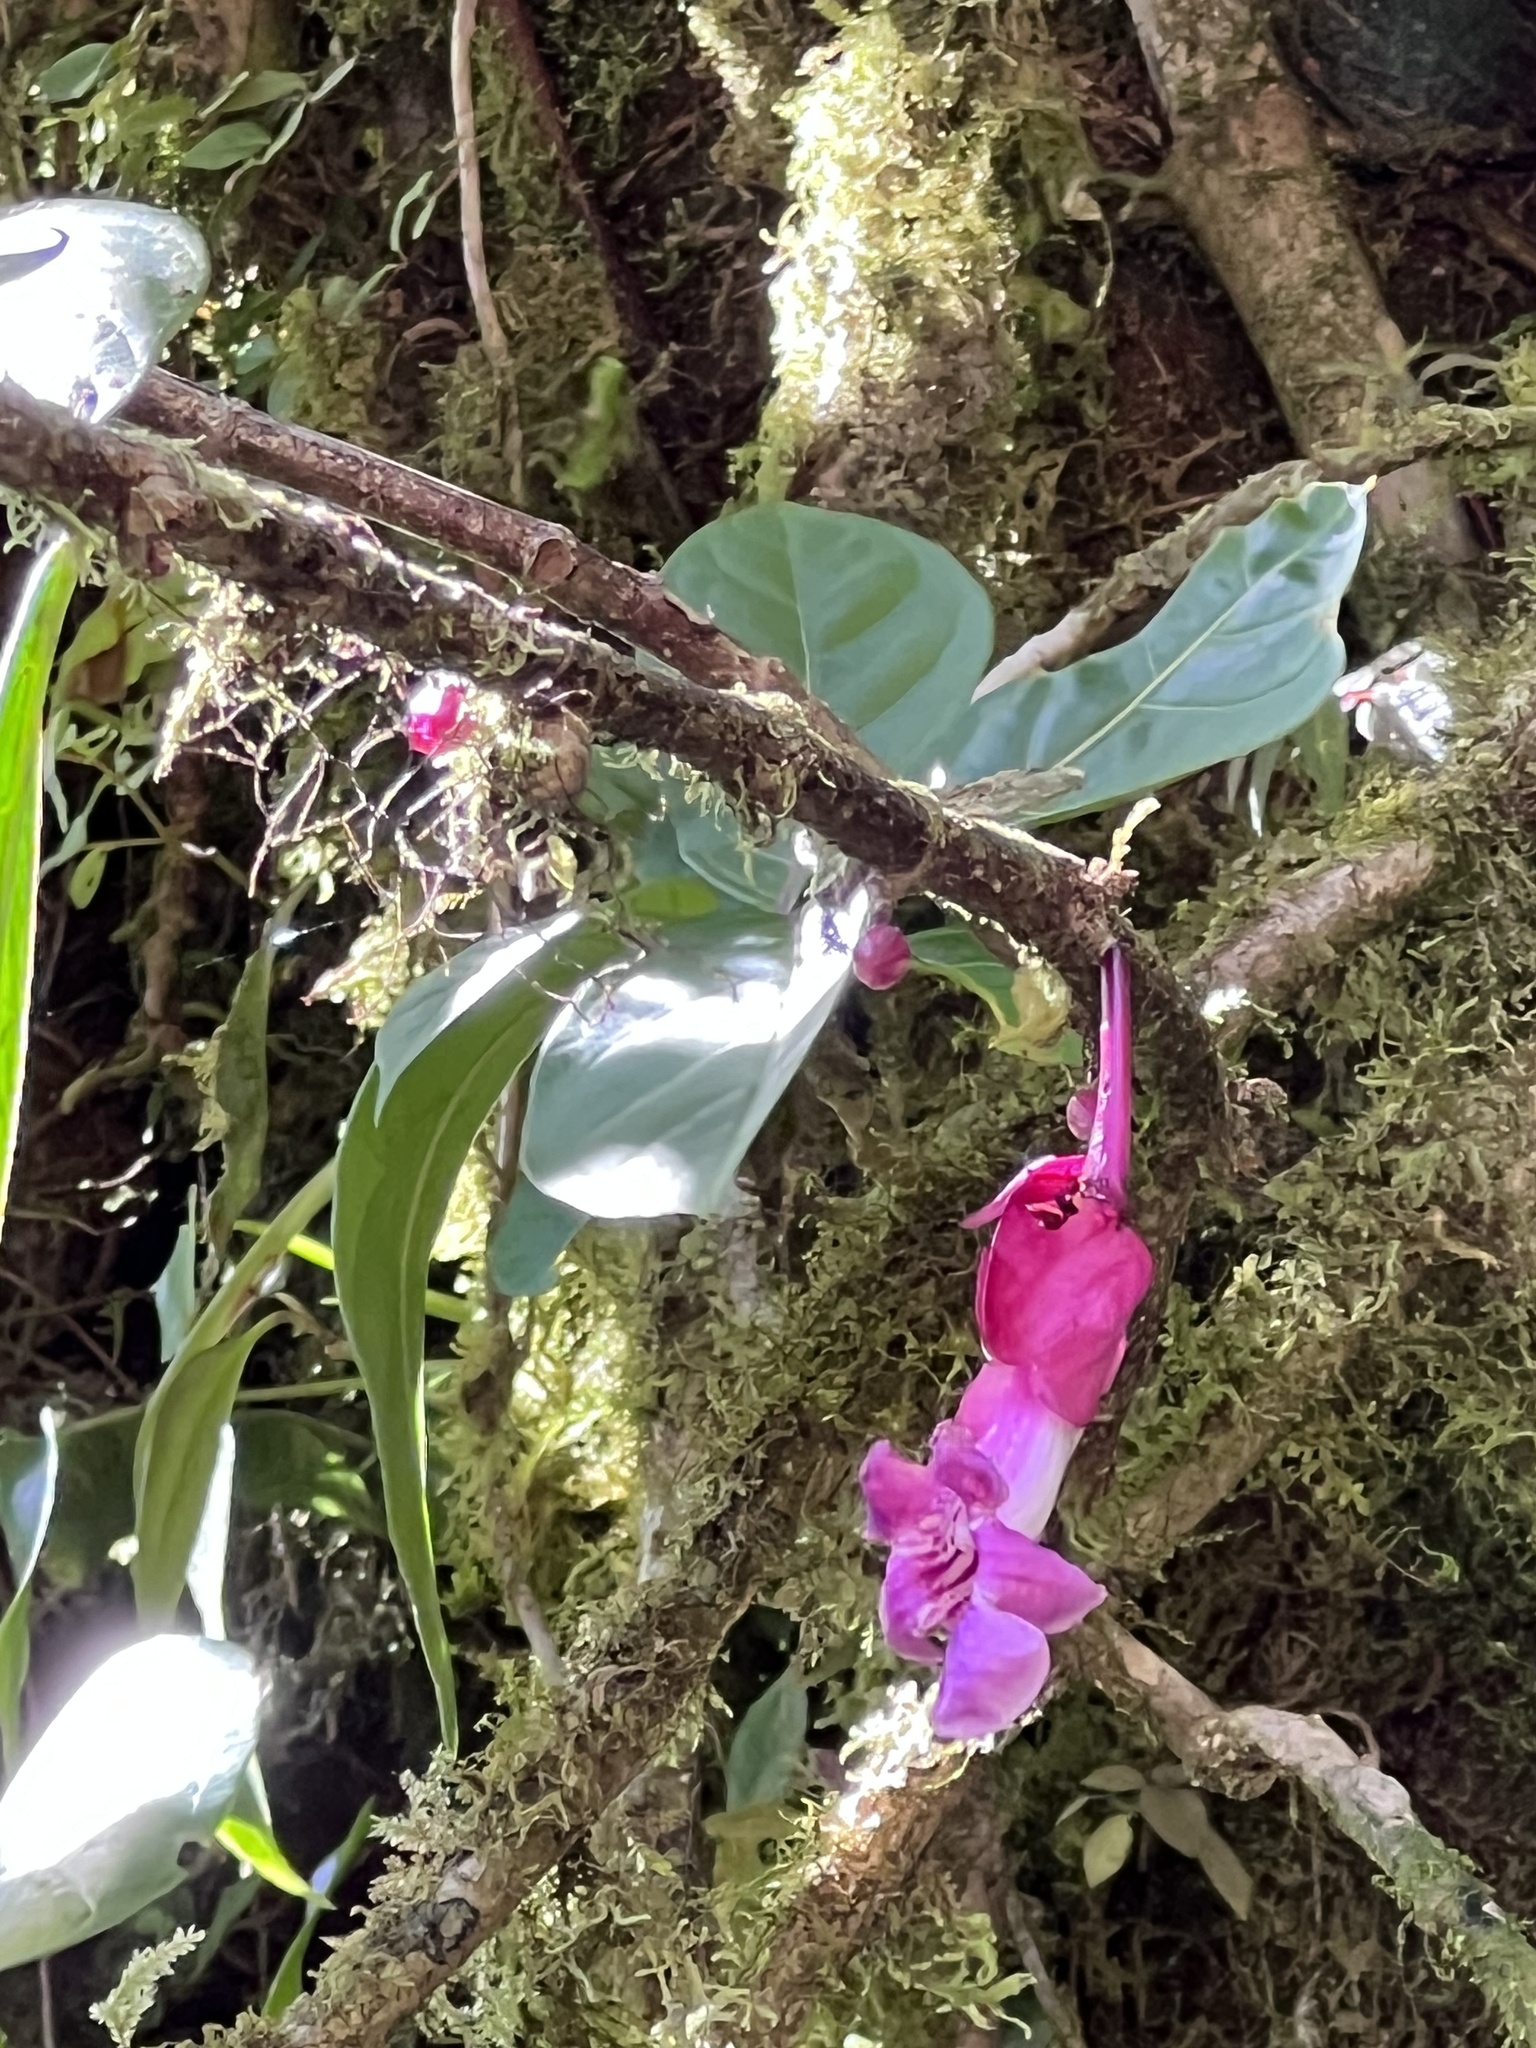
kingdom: Plantae
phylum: Tracheophyta
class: Magnoliopsida
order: Lamiales
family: Gesneriaceae
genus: Drymonia
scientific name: Drymonia conchocalyx
